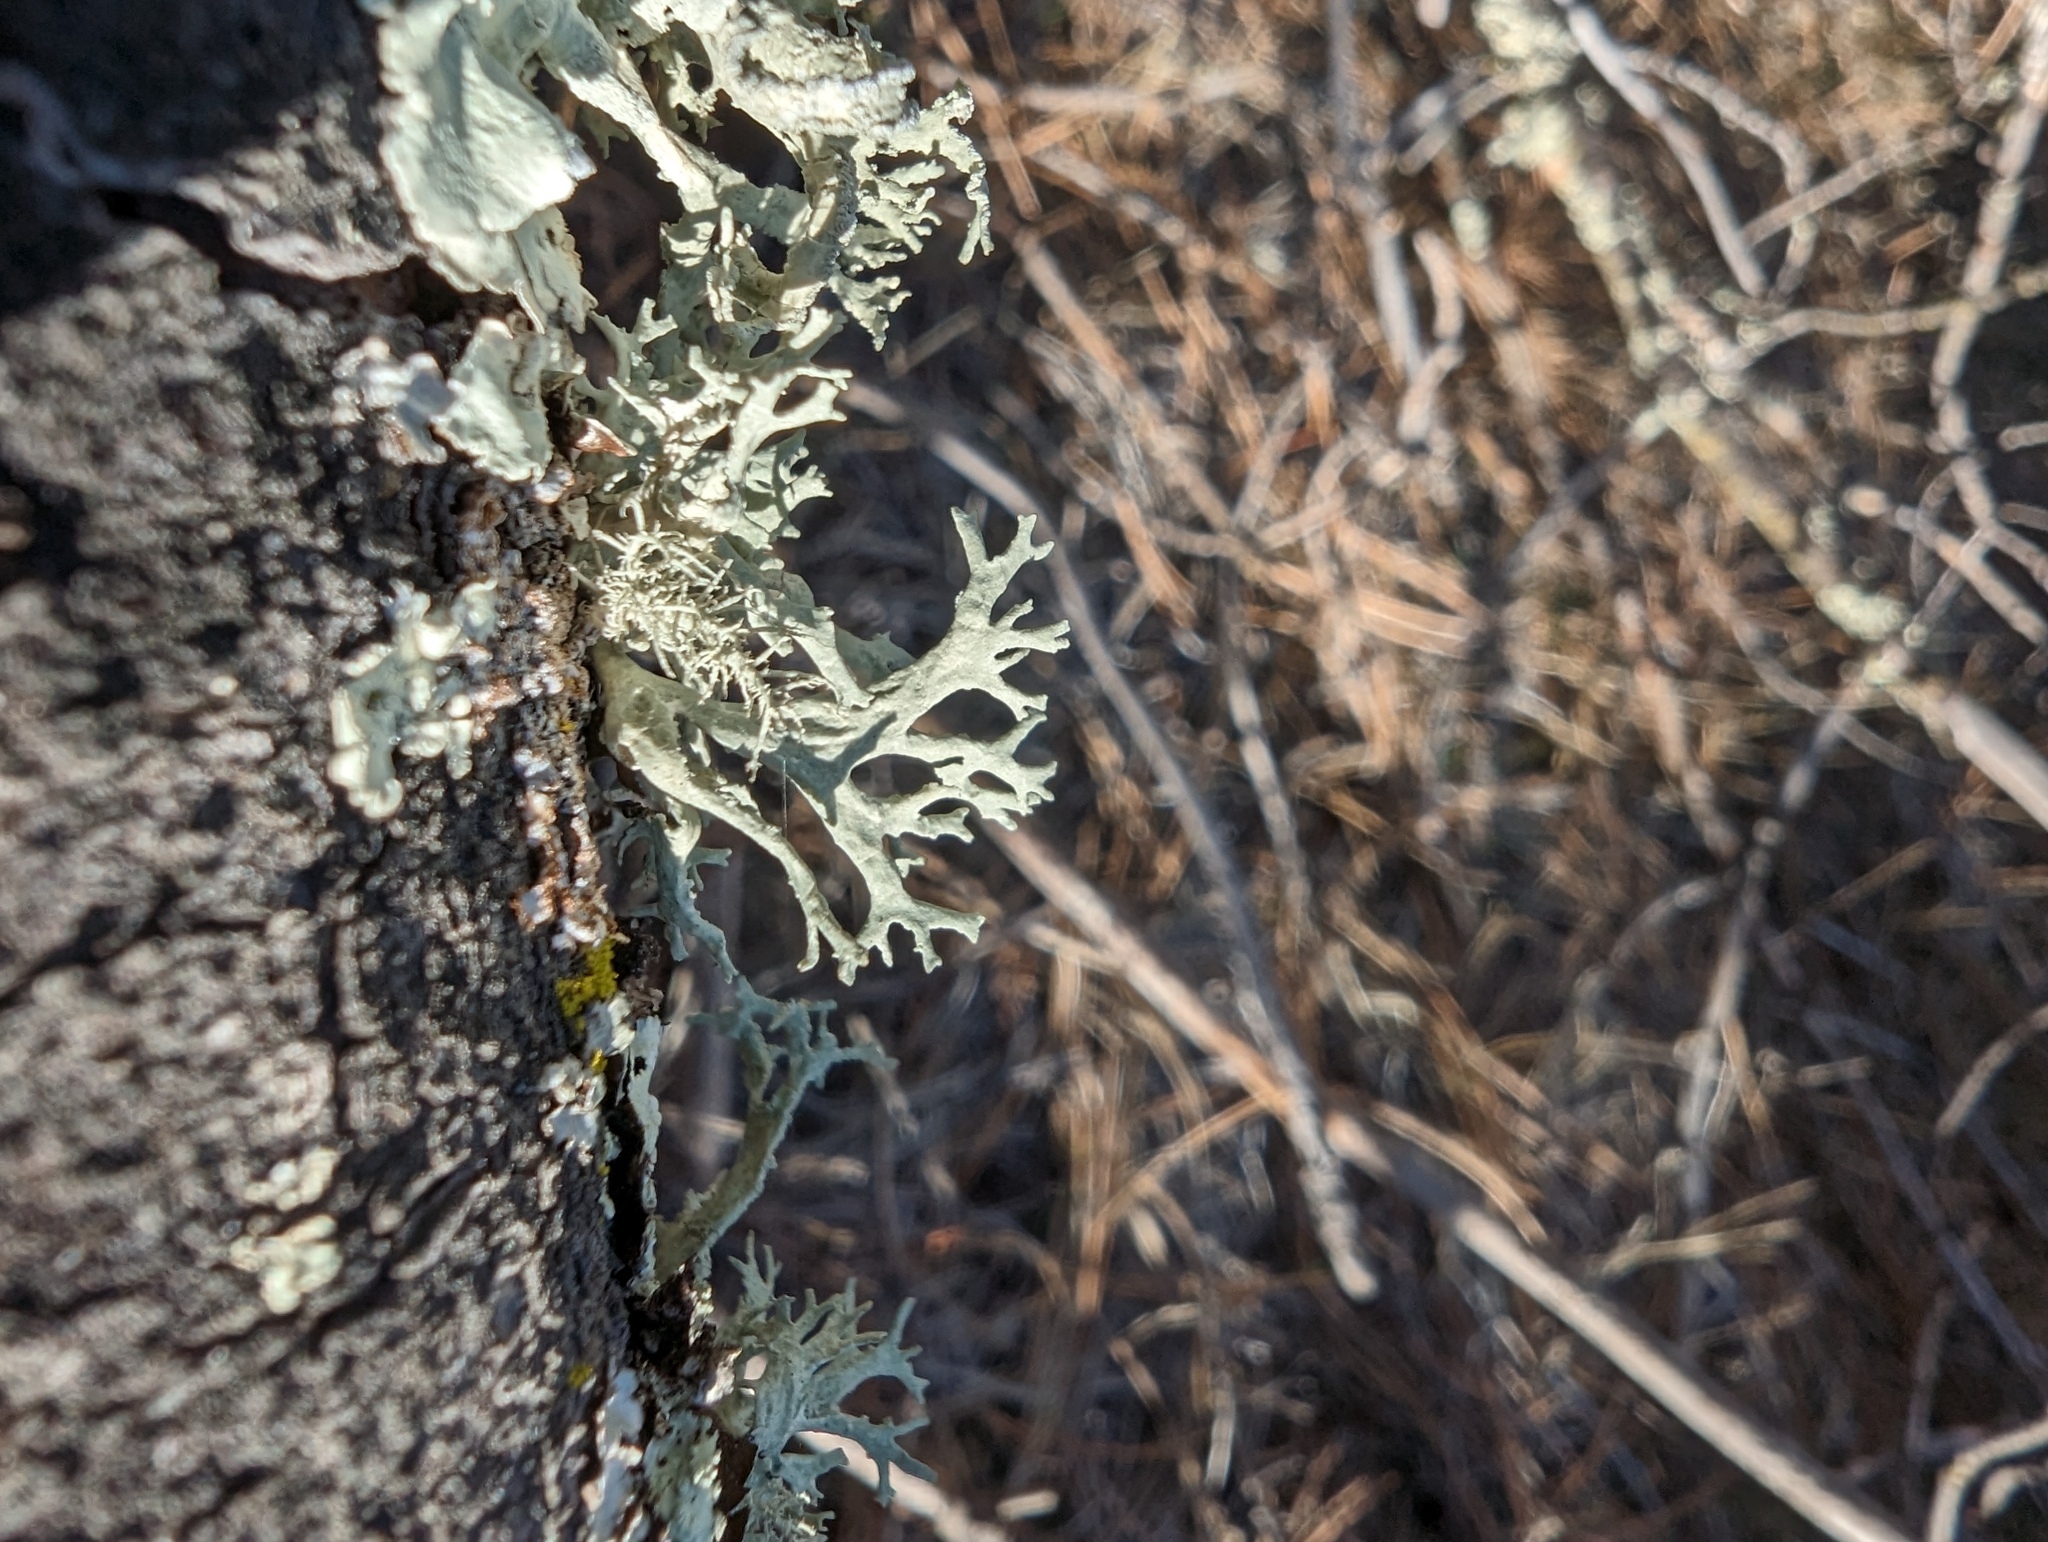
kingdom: Fungi
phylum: Ascomycota
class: Lecanoromycetes
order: Lecanorales
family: Parmeliaceae
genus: Evernia
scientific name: Evernia prunastri
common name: Oak moss
